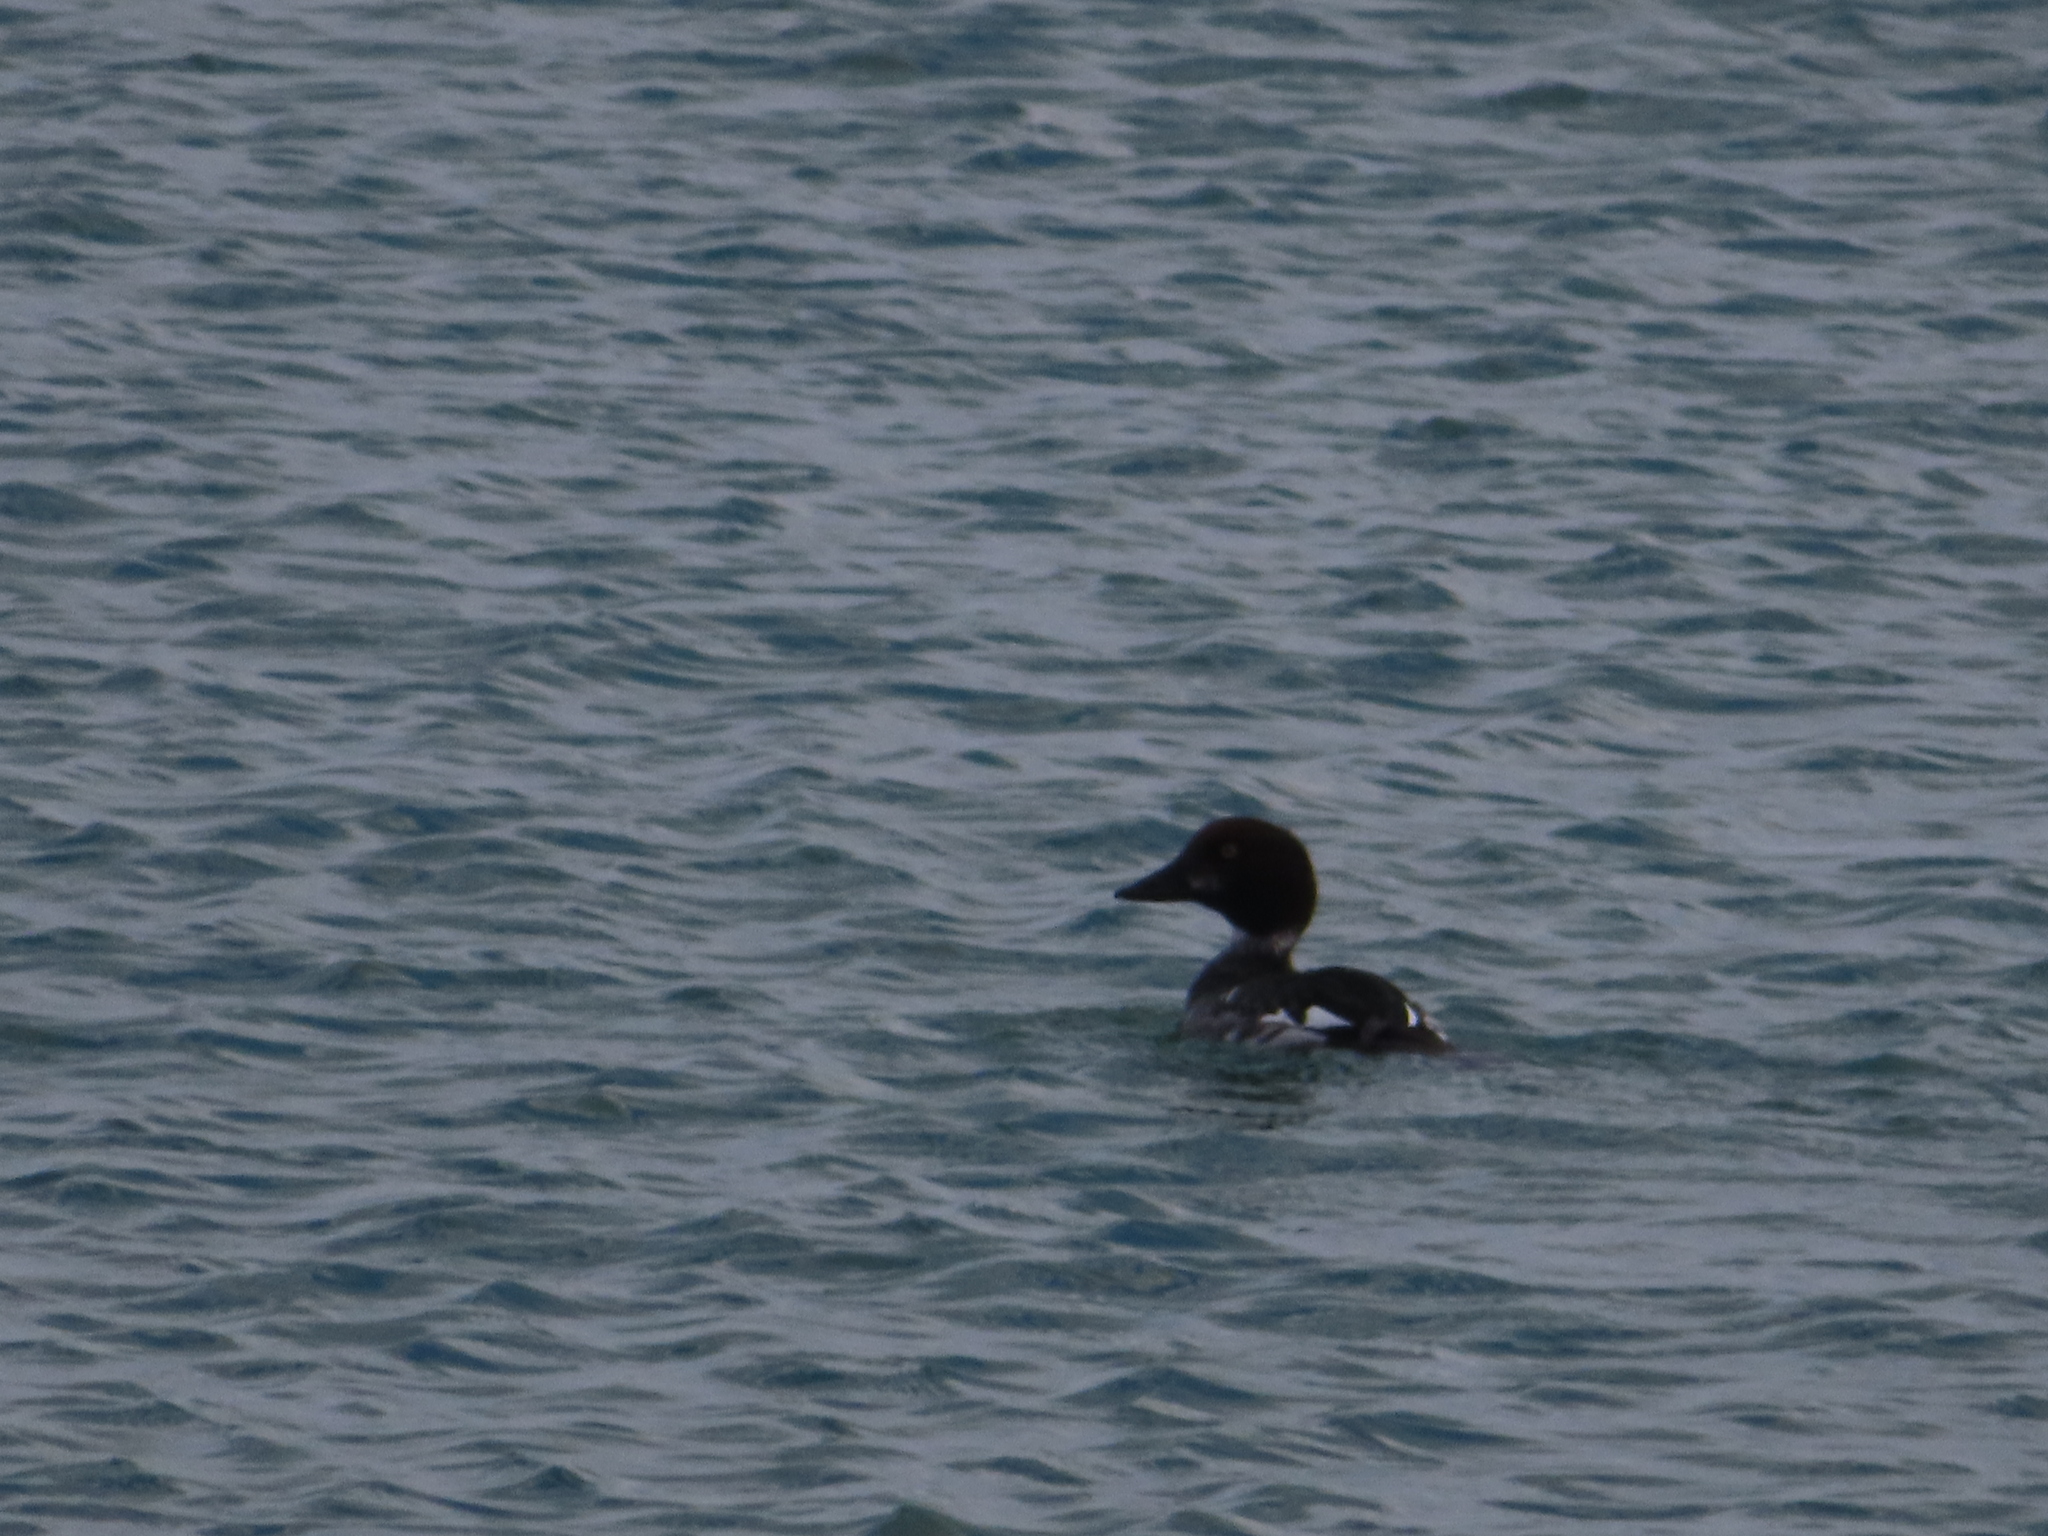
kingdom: Animalia
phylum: Chordata
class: Aves
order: Anseriformes
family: Anatidae
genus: Bucephala
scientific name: Bucephala clangula
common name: Common goldeneye
